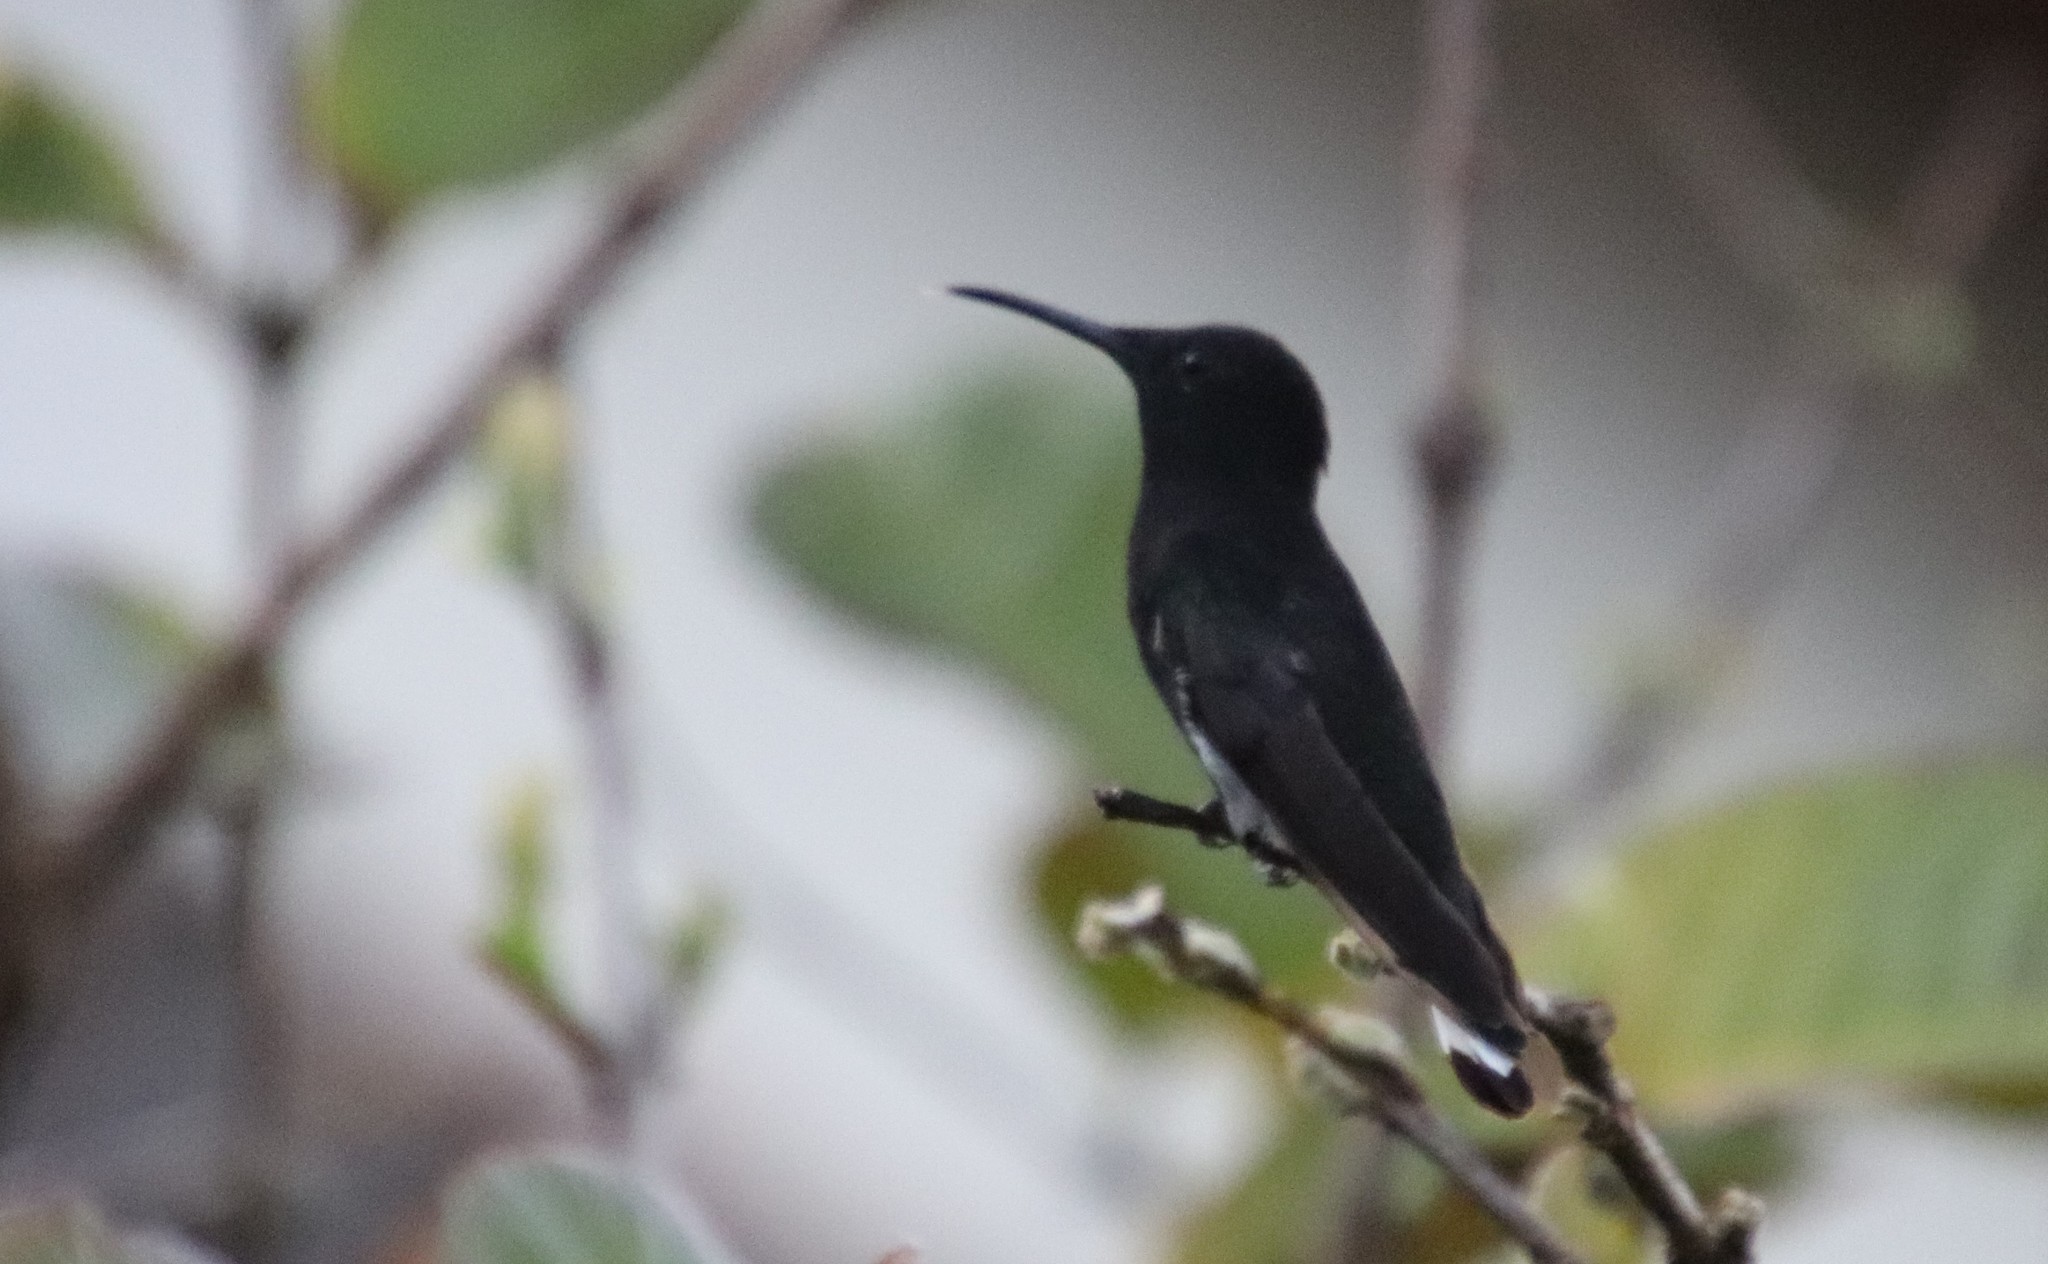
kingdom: Animalia
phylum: Chordata
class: Aves
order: Apodiformes
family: Trochilidae
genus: Florisuga
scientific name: Florisuga fusca
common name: Black jacobin
